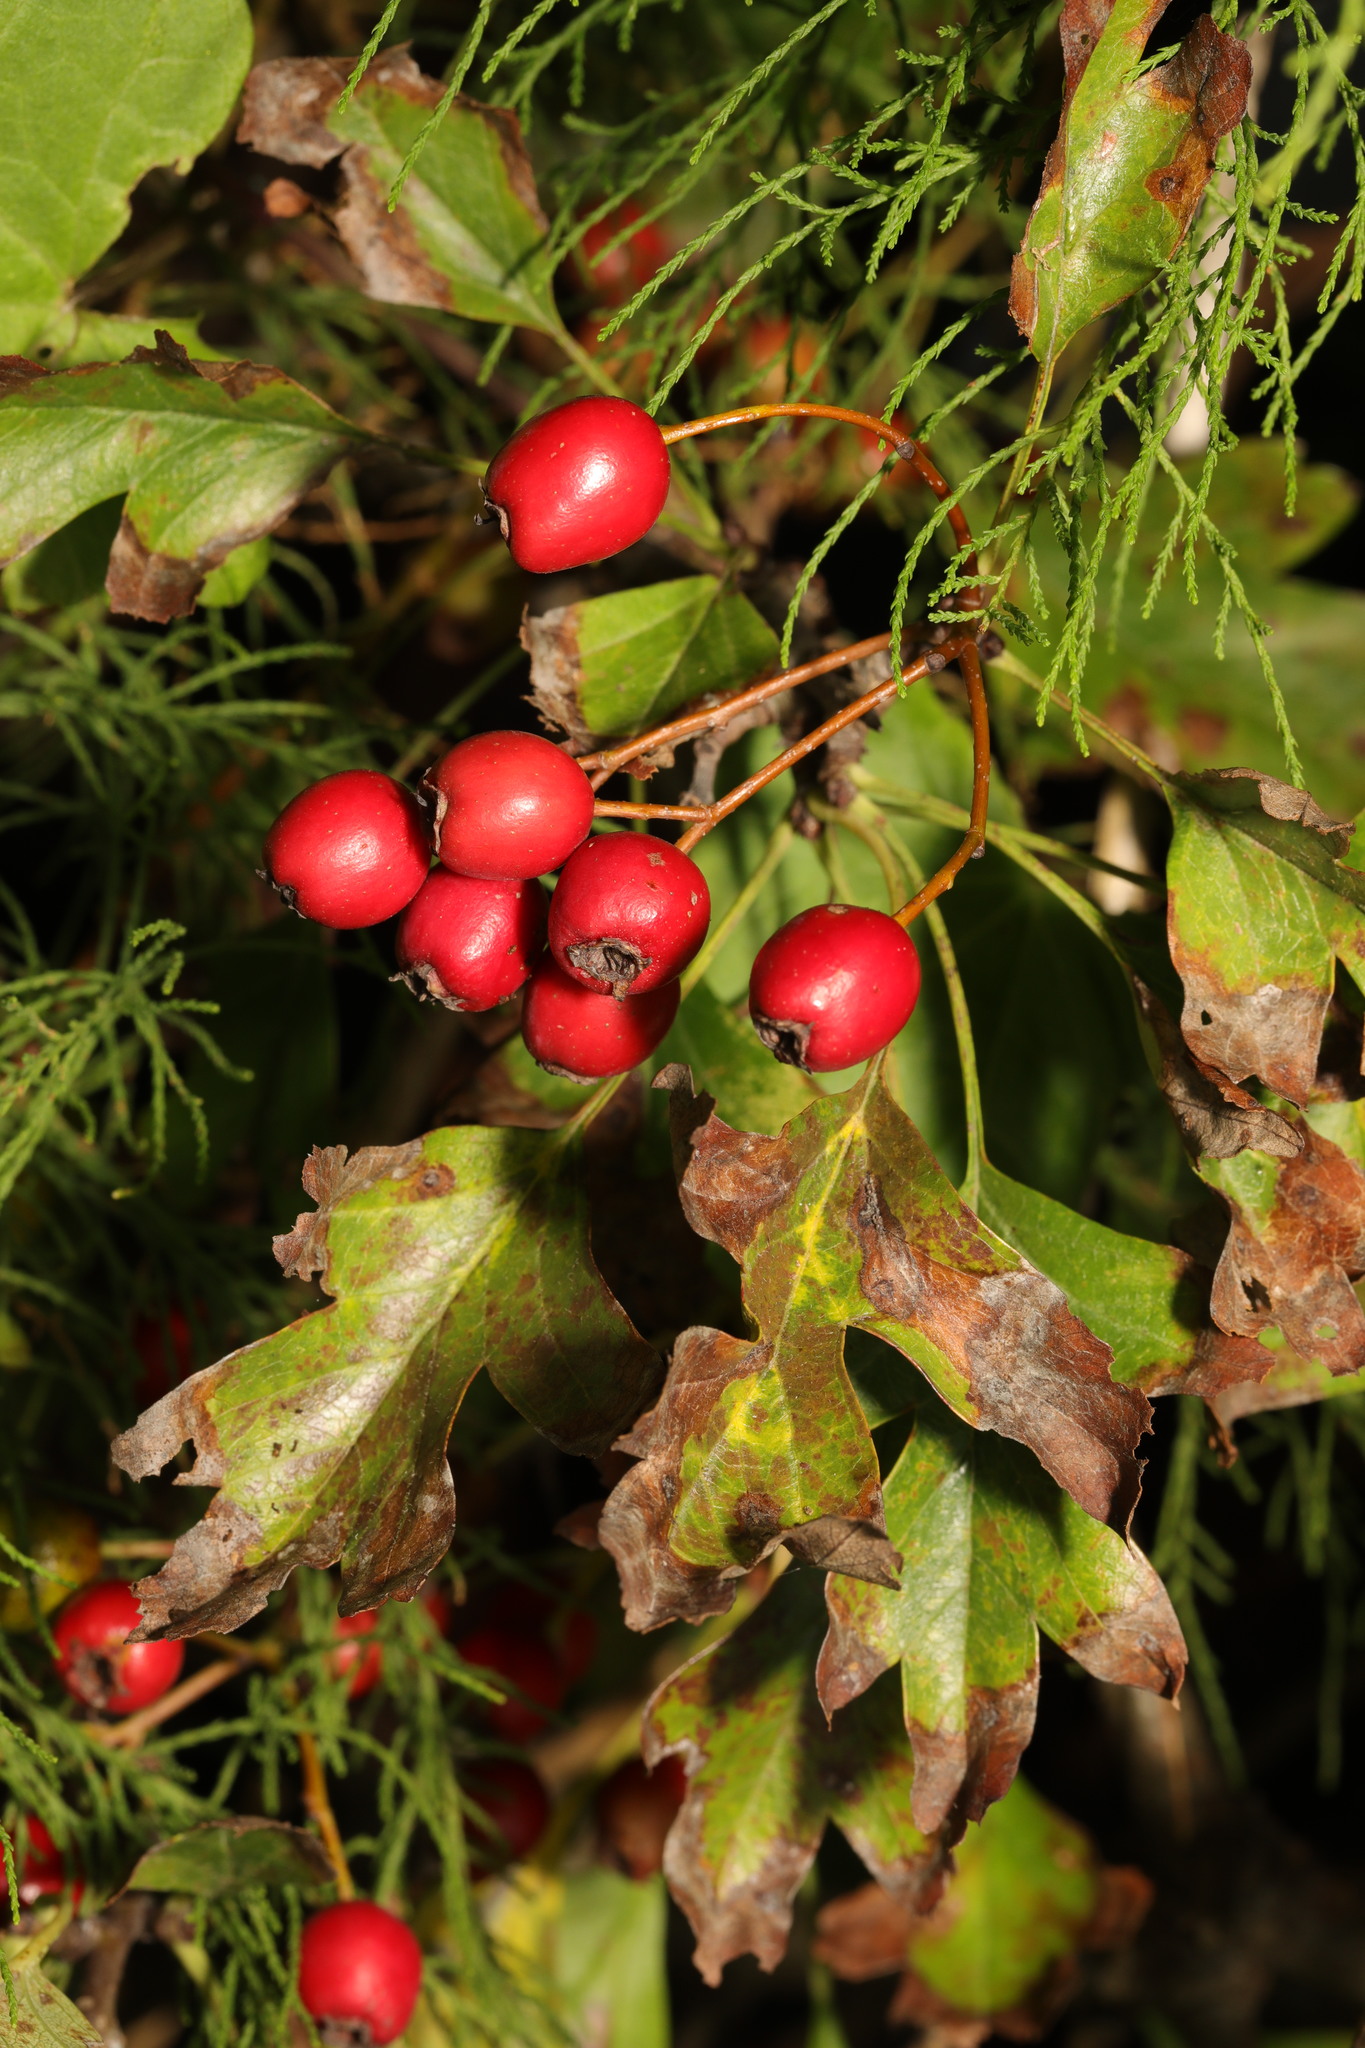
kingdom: Plantae
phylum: Tracheophyta
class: Magnoliopsida
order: Rosales
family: Rosaceae
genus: Crataegus
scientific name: Crataegus monogyna
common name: Hawthorn
